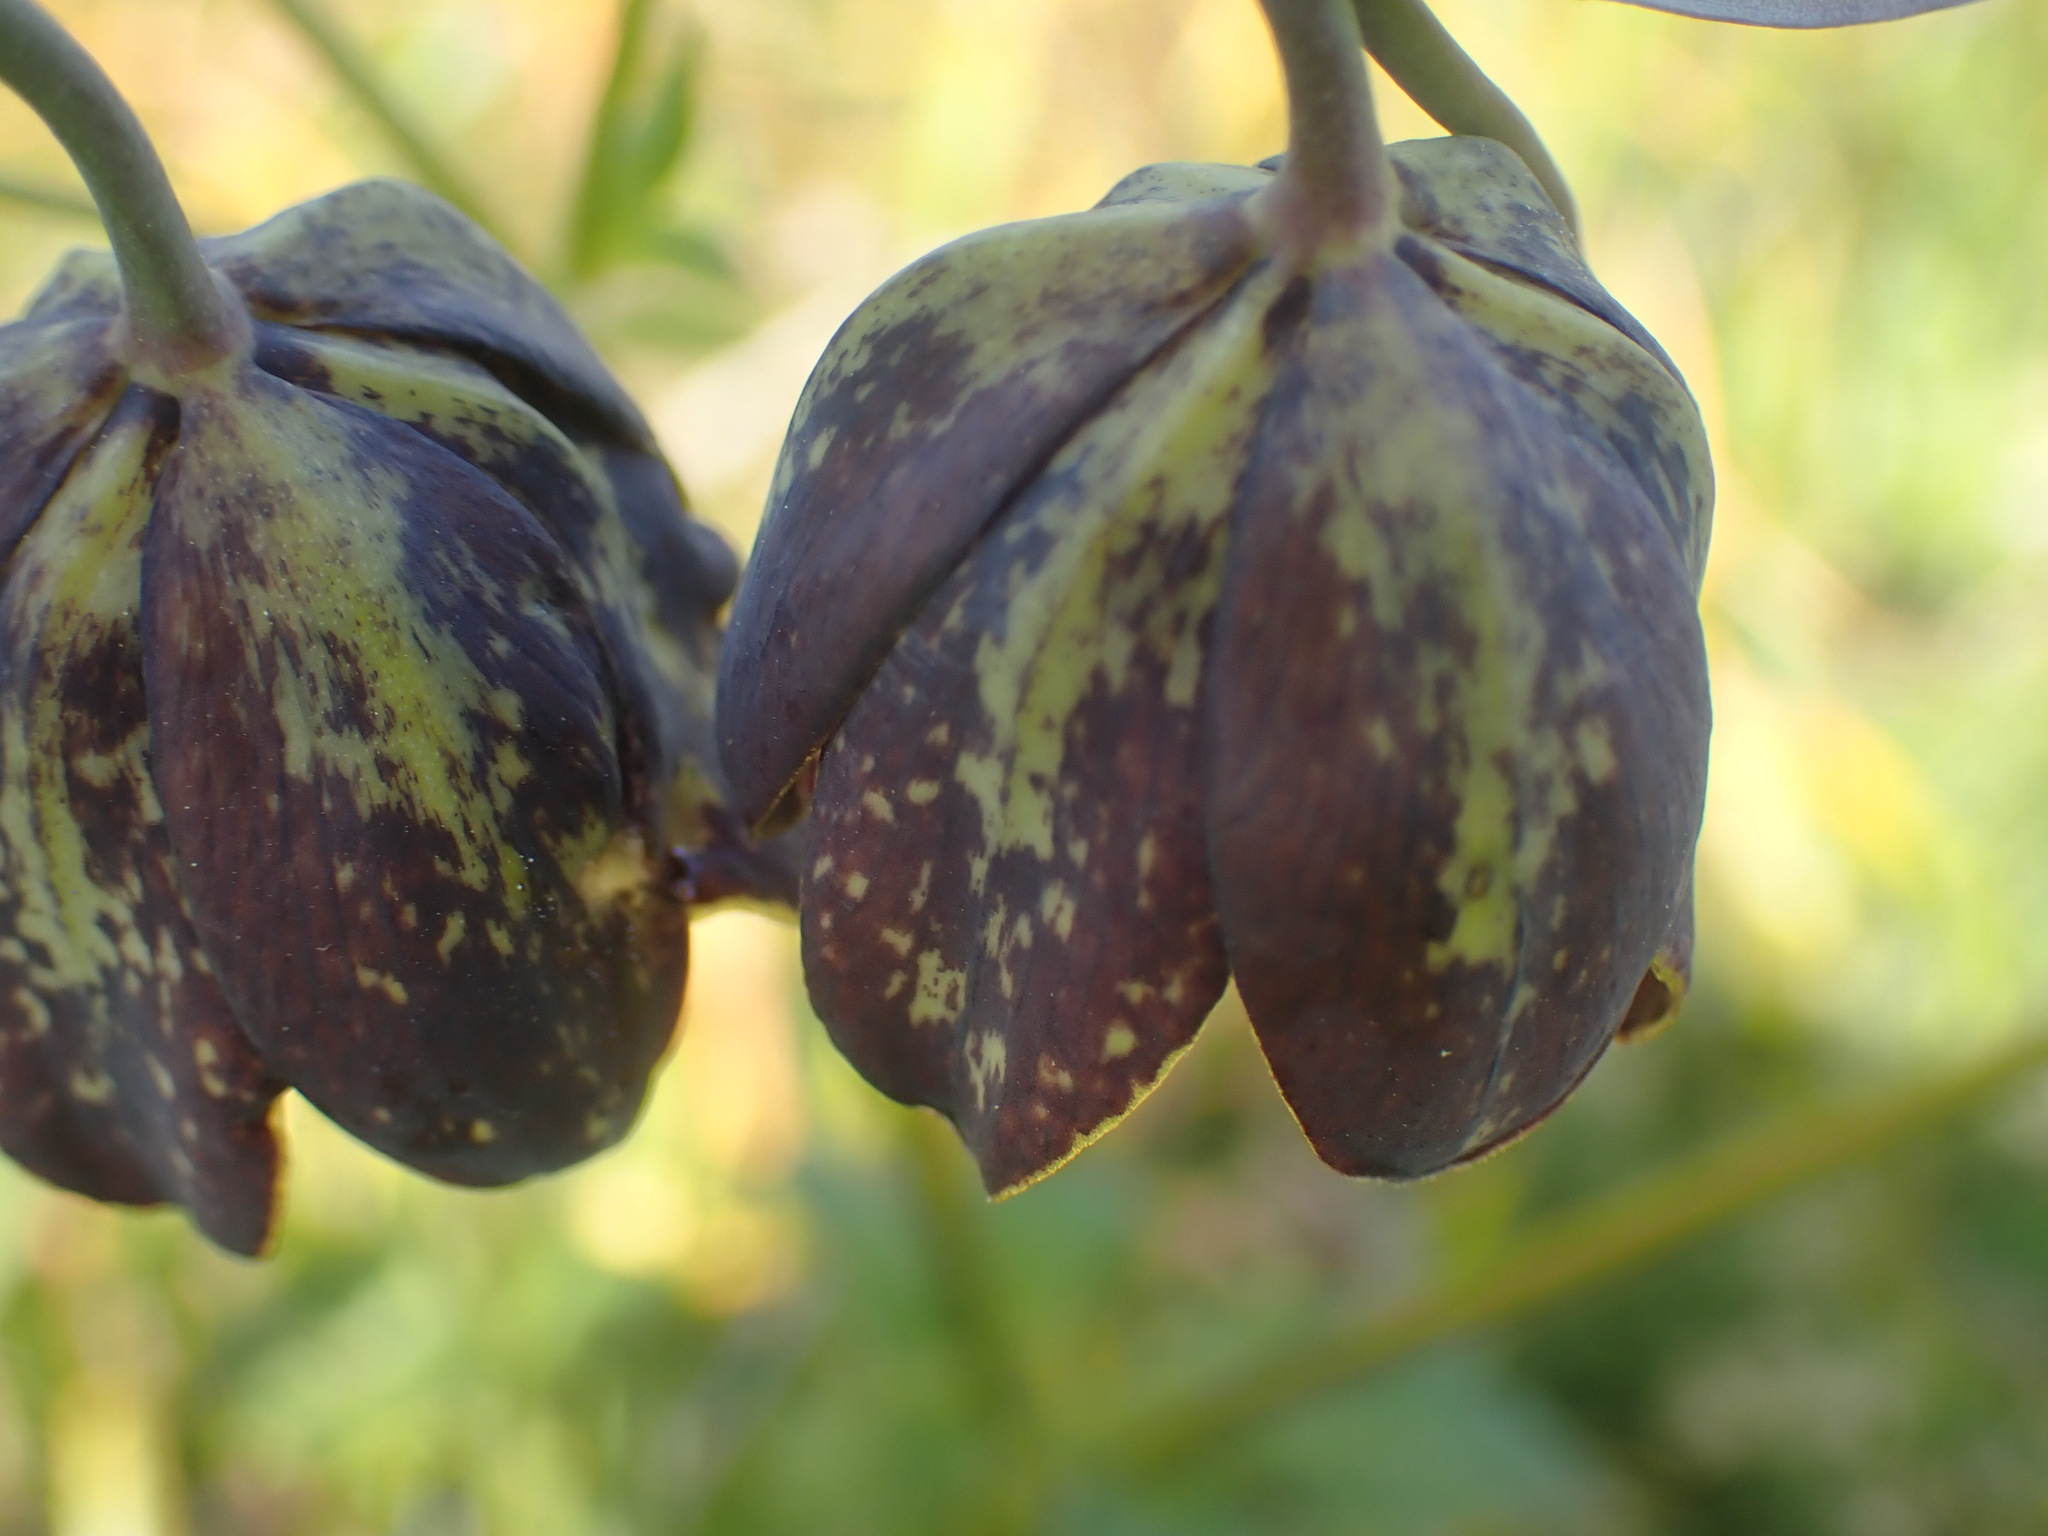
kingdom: Plantae
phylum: Tracheophyta
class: Liliopsida
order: Liliales
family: Liliaceae
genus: Fritillaria
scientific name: Fritillaria affinis
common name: Ojai fritillary
